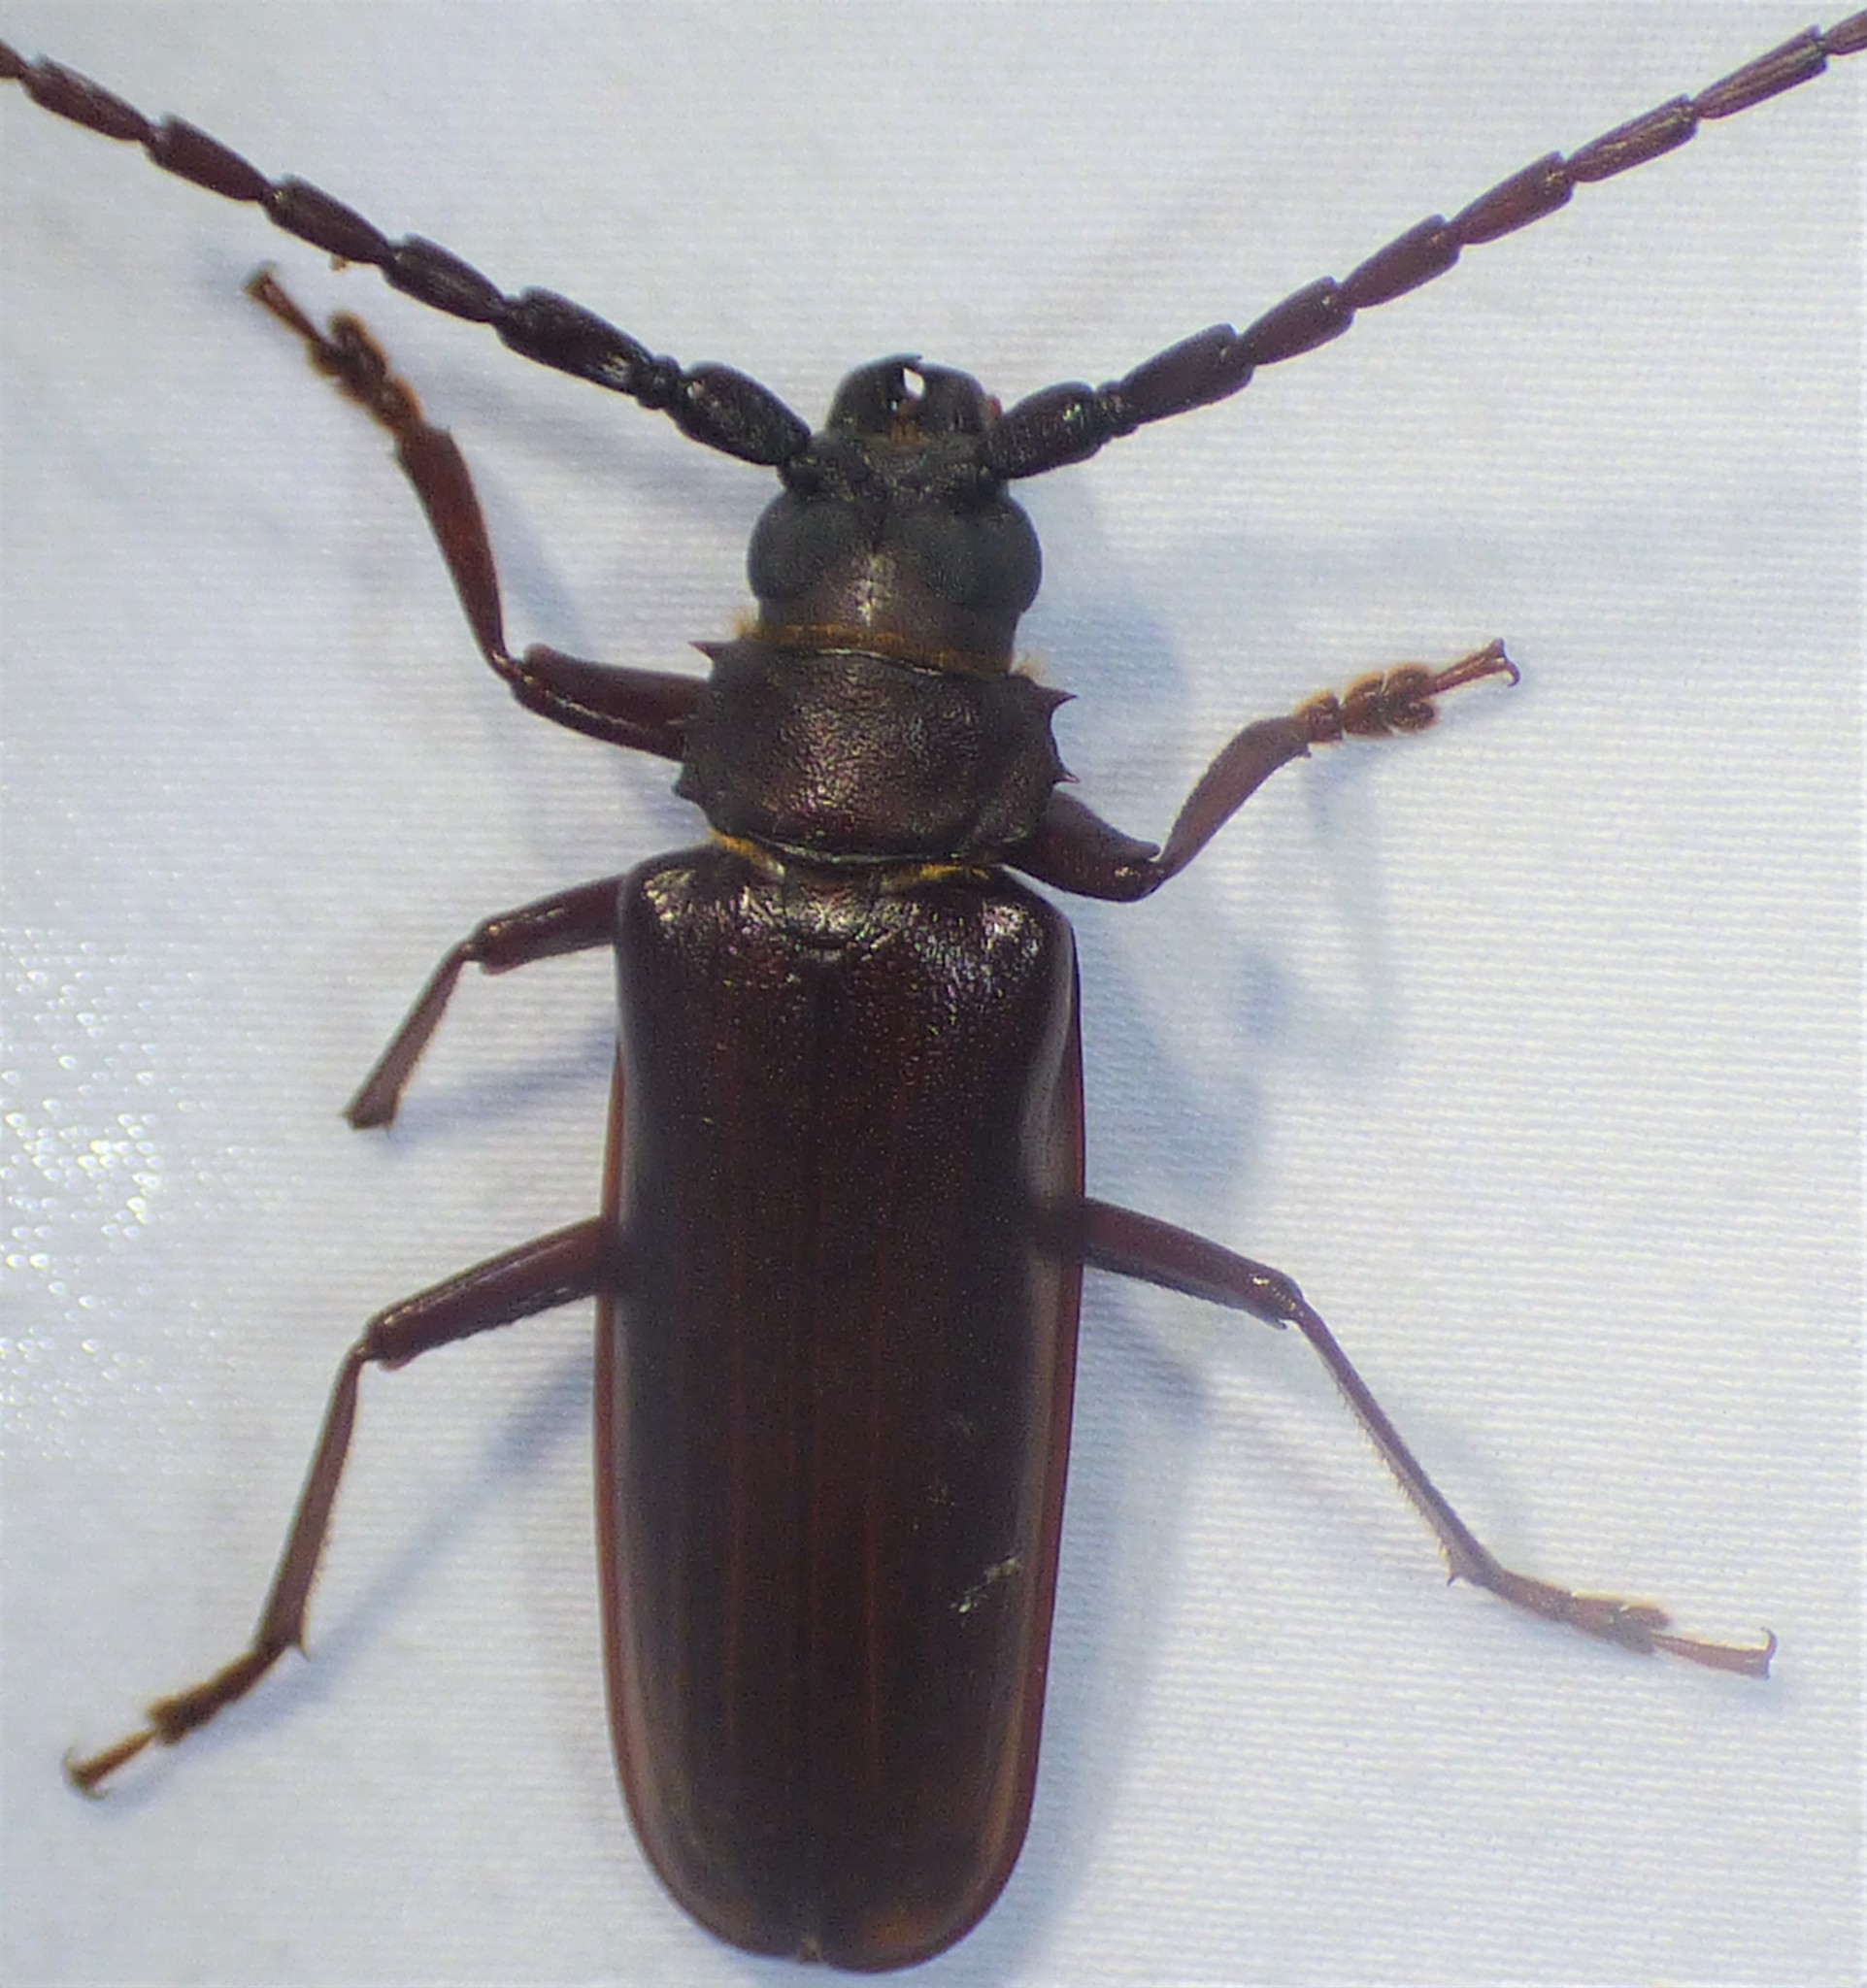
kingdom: Animalia
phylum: Arthropoda
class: Insecta
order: Coleoptera
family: Cerambycidae
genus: Orthosoma
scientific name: Orthosoma brunneum
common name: Brown prionid beetle
